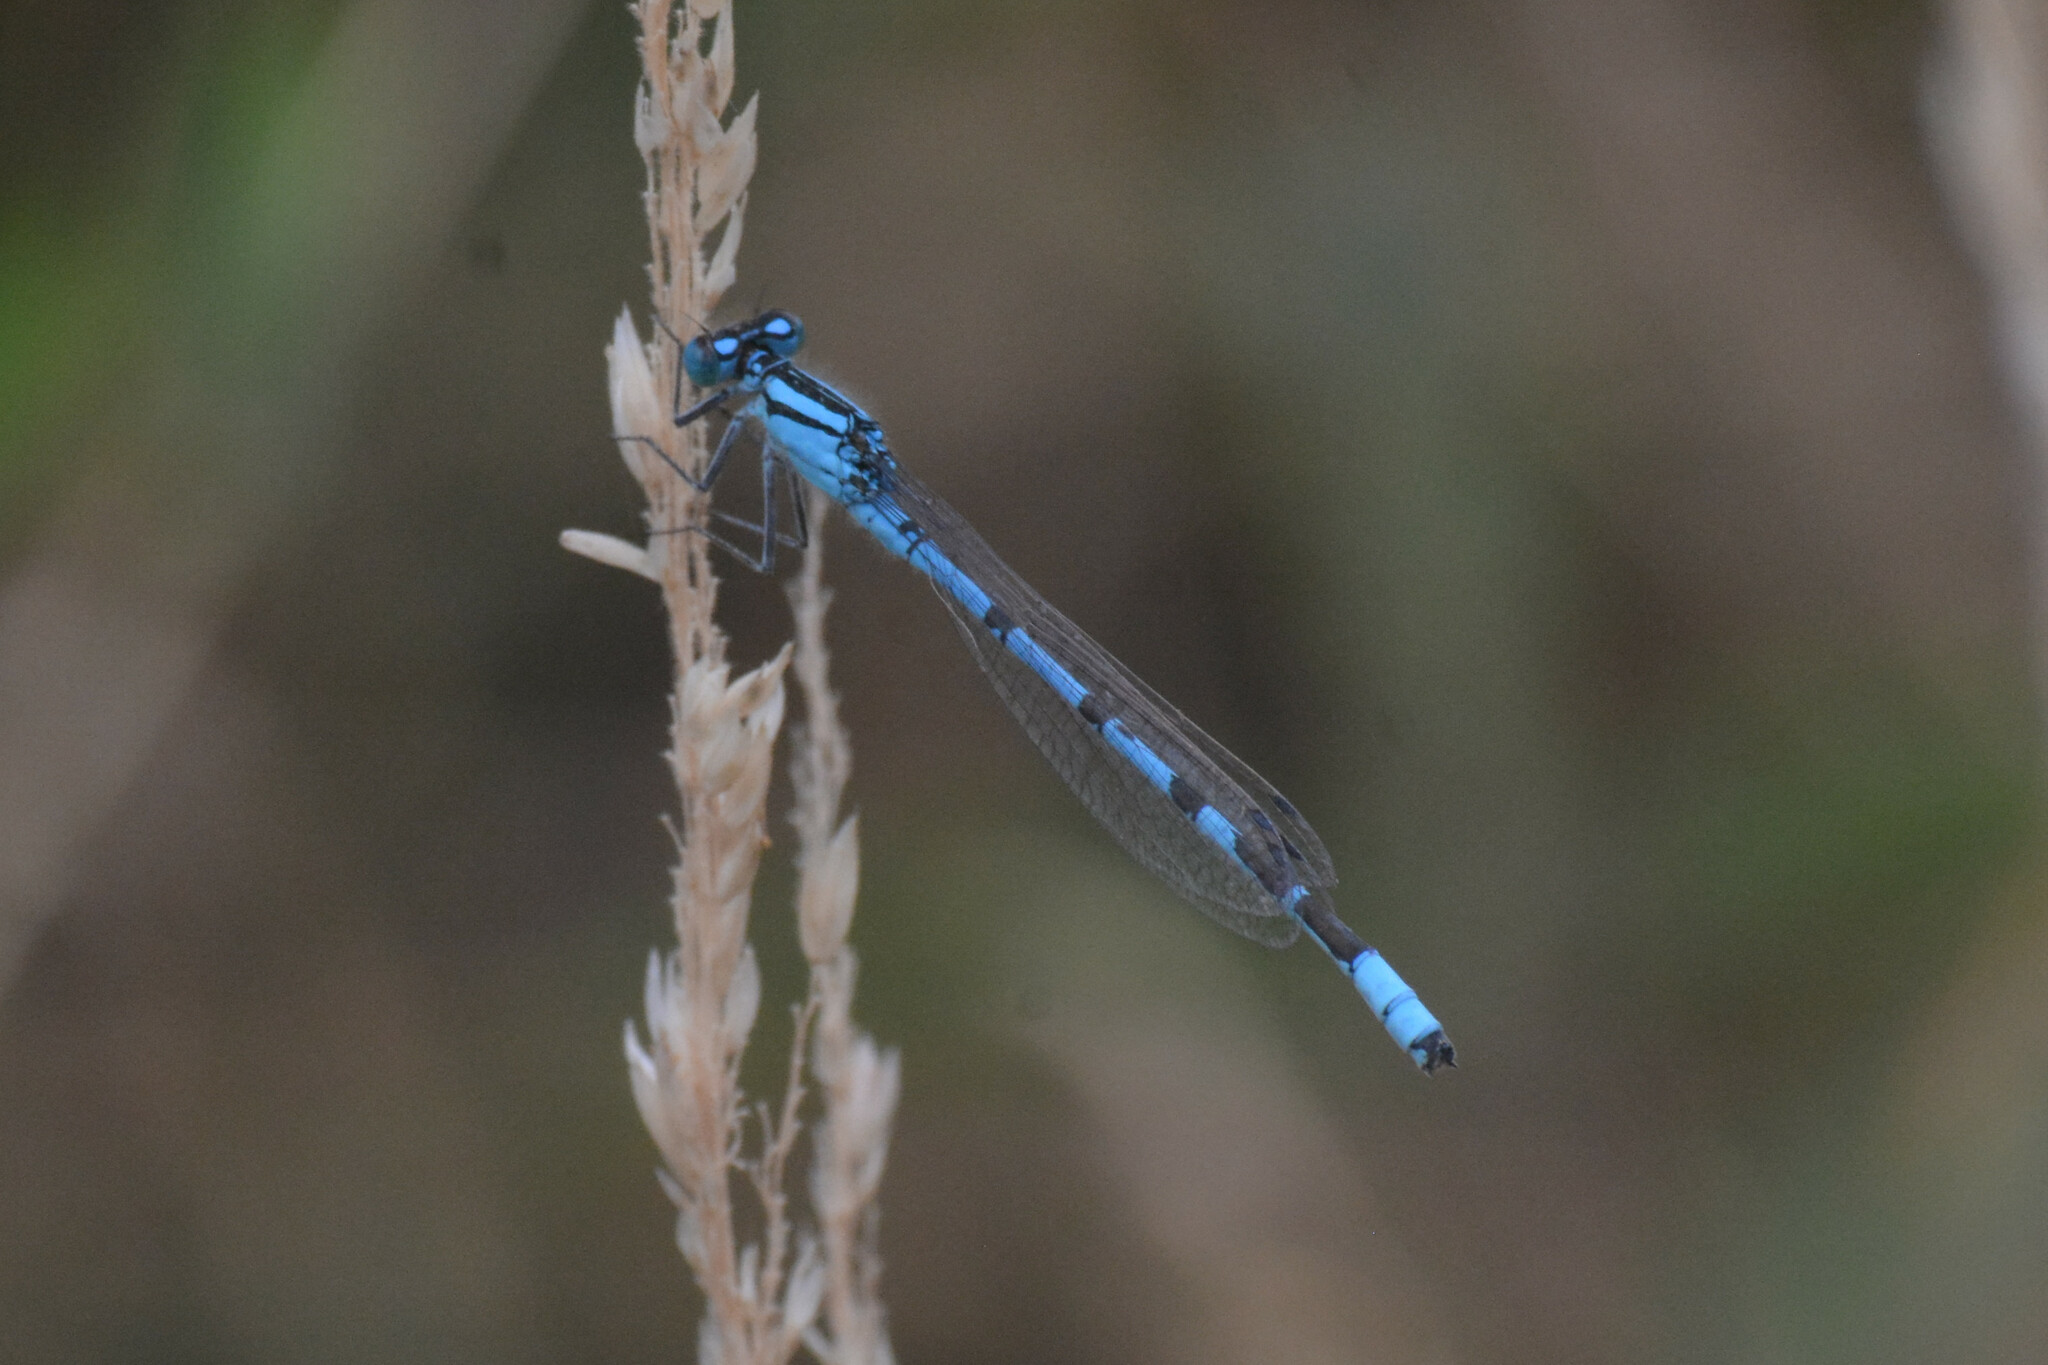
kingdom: Animalia
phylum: Arthropoda
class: Insecta
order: Odonata
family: Coenagrionidae
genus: Enallagma
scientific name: Enallagma cyathigerum
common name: Common blue damselfly
